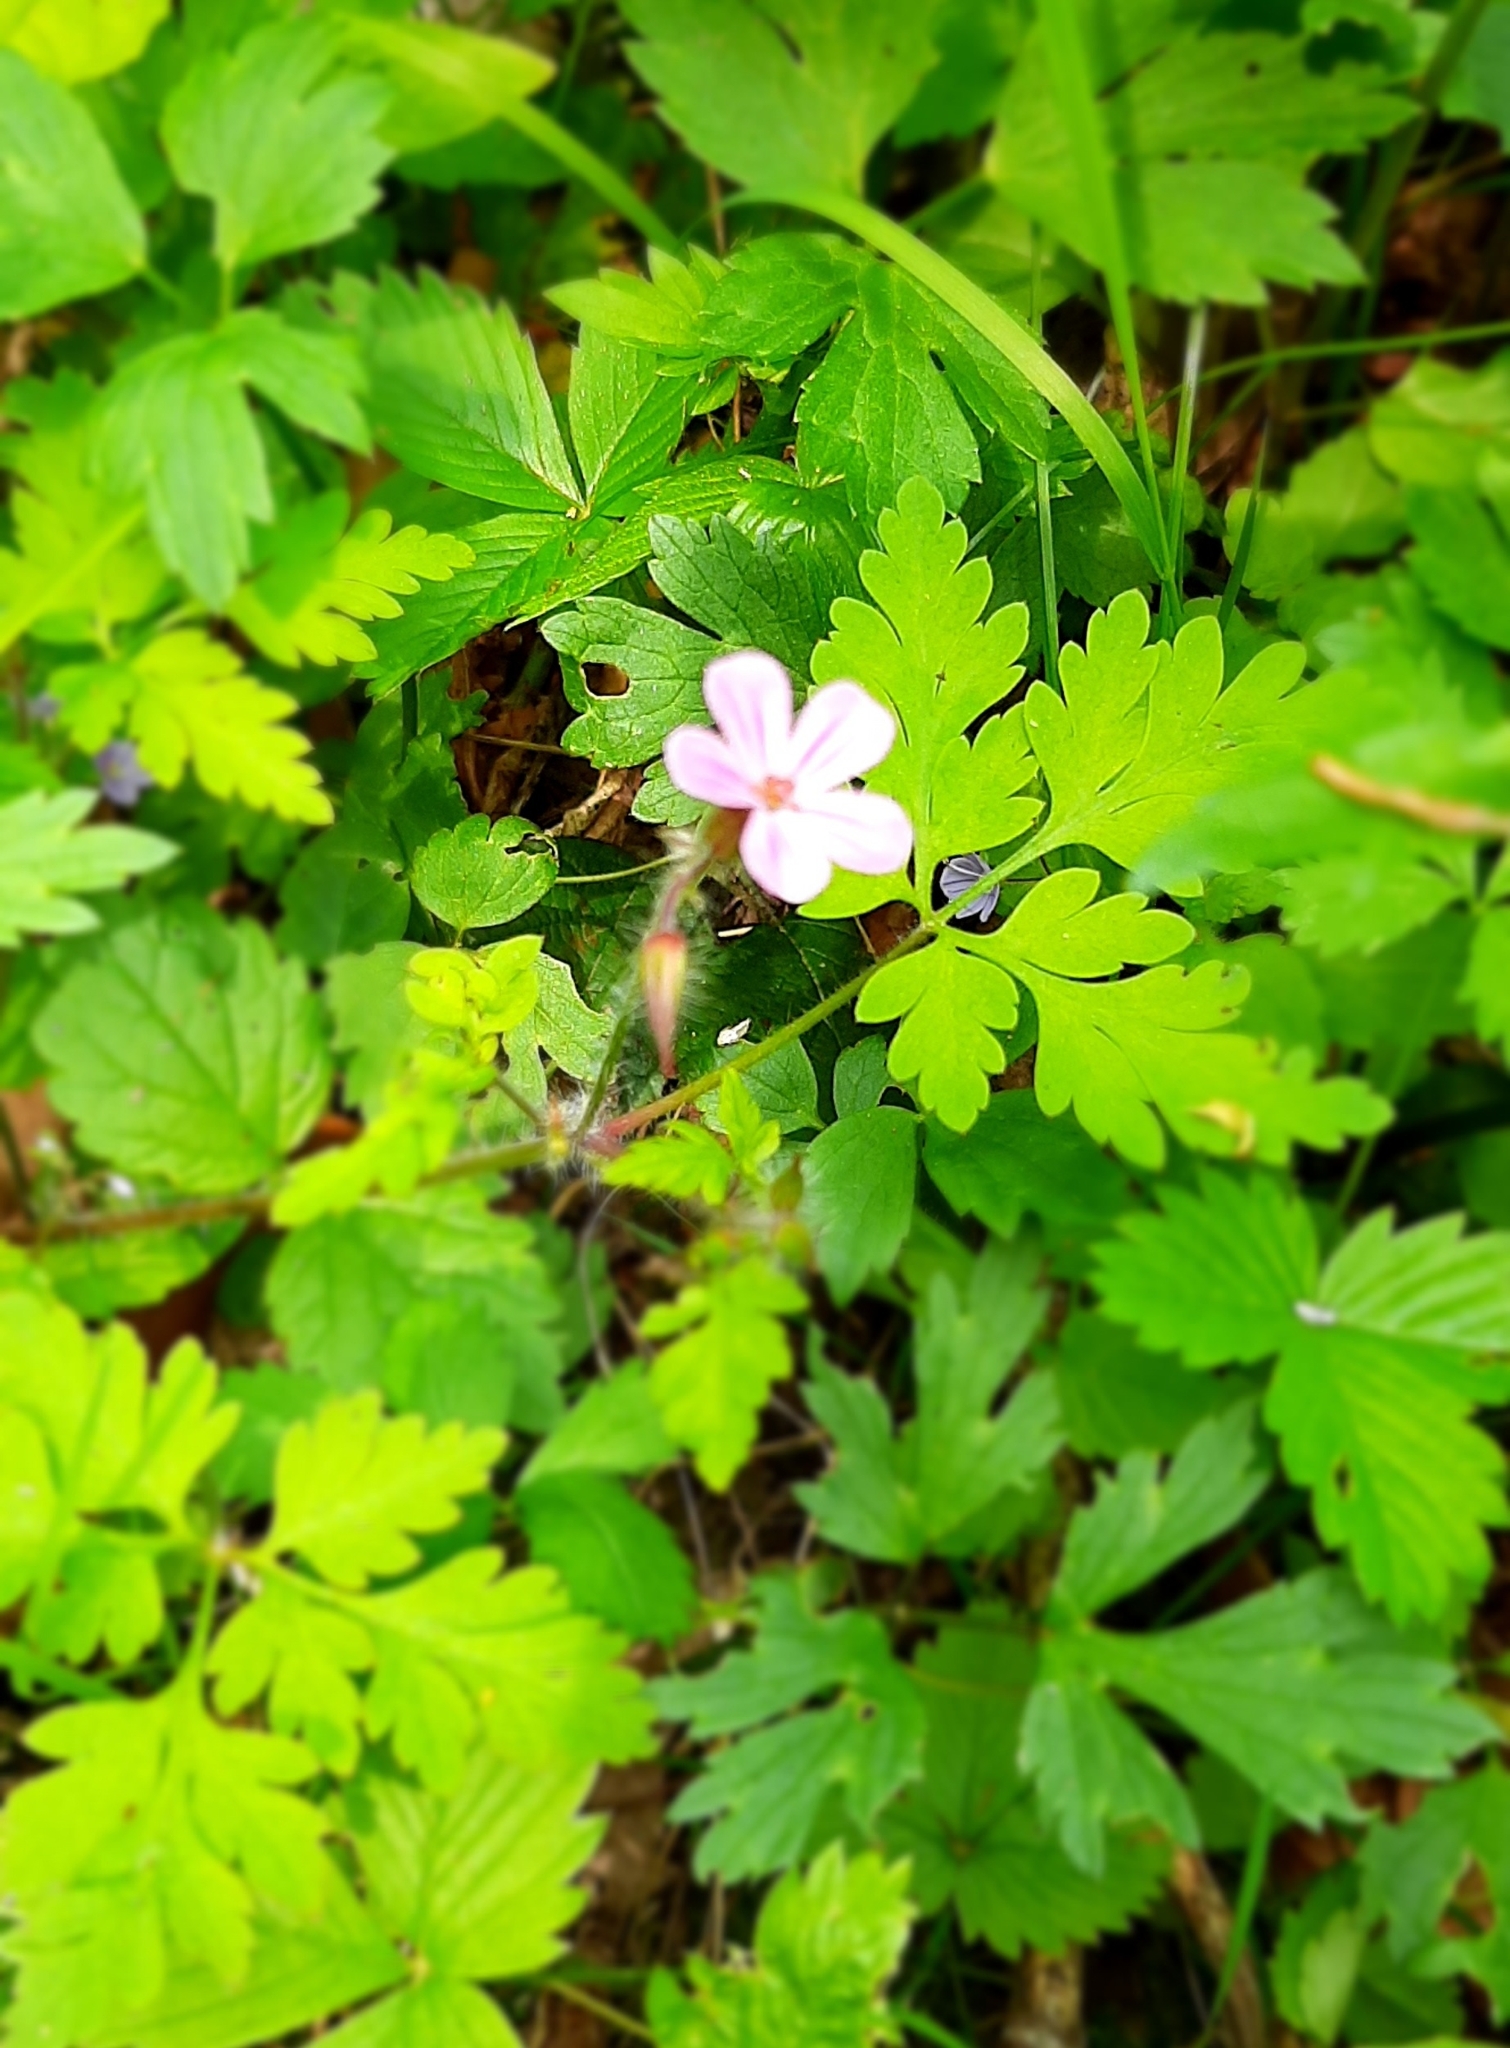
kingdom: Plantae
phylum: Tracheophyta
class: Magnoliopsida
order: Geraniales
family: Geraniaceae
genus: Geranium
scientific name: Geranium robertianum
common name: Herb-robert
